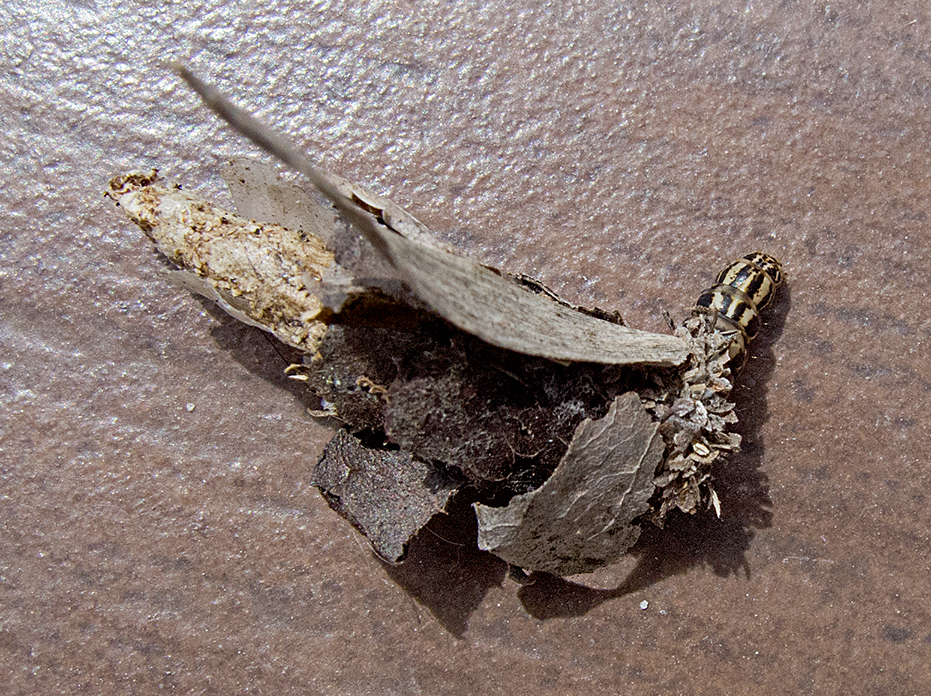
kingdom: Animalia
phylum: Arthropoda
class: Insecta
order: Lepidoptera
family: Psychidae
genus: Canephora
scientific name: Canephora hirsuta
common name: Hairy sweep
